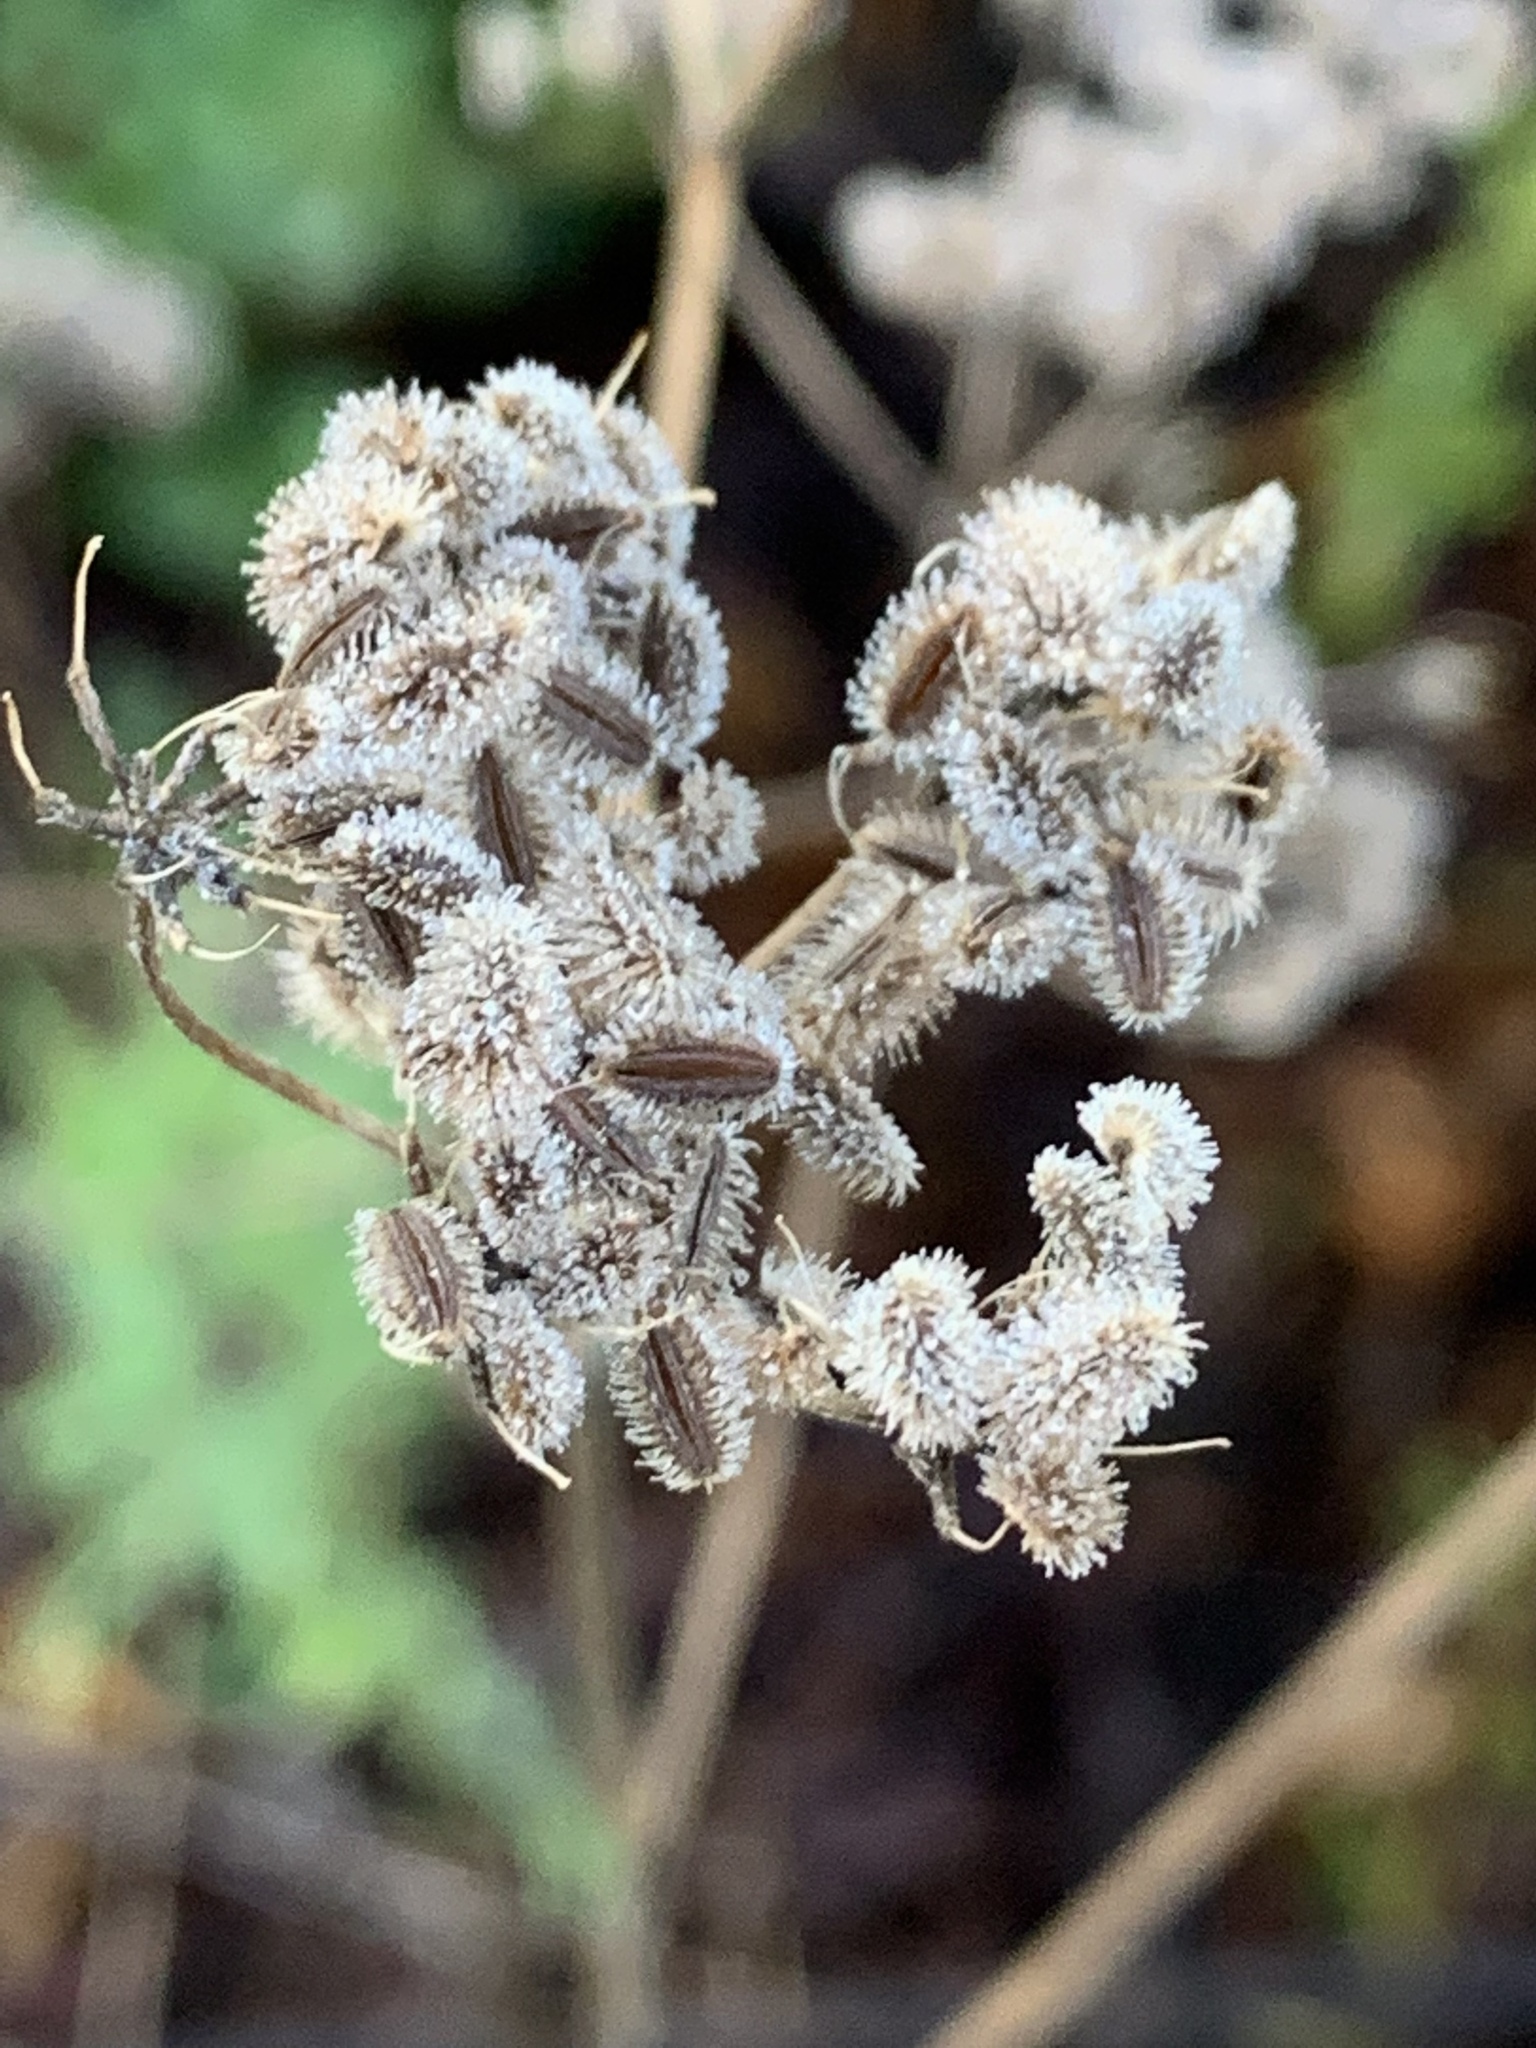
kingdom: Plantae
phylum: Tracheophyta
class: Magnoliopsida
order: Apiales
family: Apiaceae
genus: Torilis
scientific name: Torilis arvensis
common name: Spreading hedge-parsley
